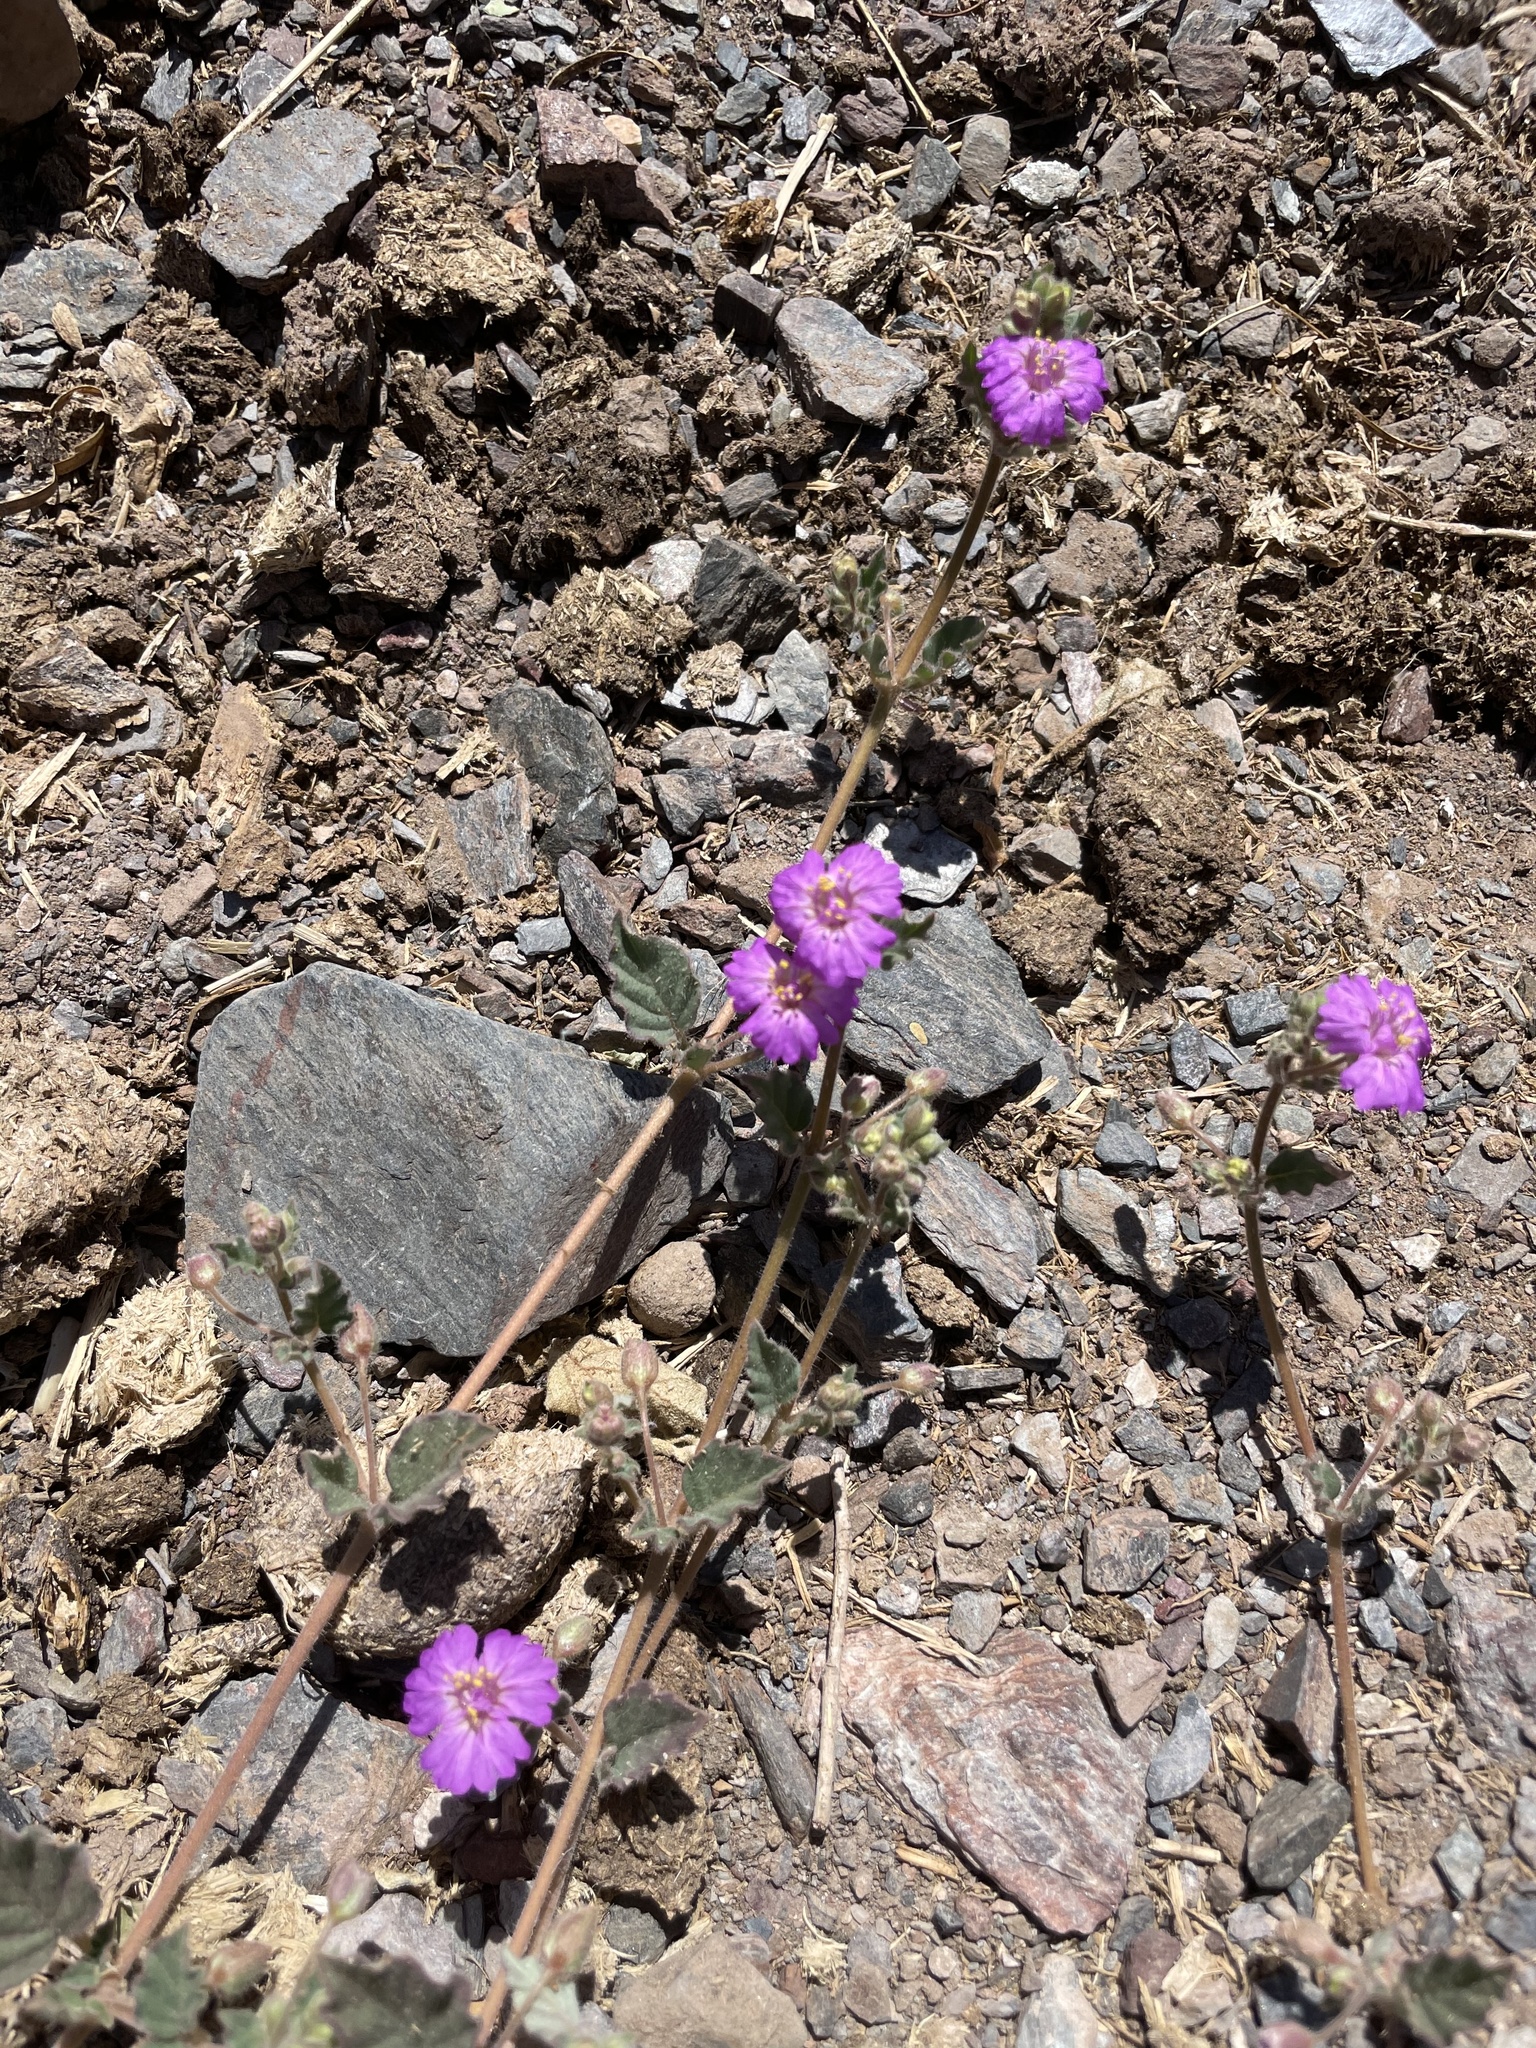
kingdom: Plantae
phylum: Tracheophyta
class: Magnoliopsida
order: Caryophyllales
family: Nyctaginaceae
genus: Allionia
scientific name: Allionia incarnata
